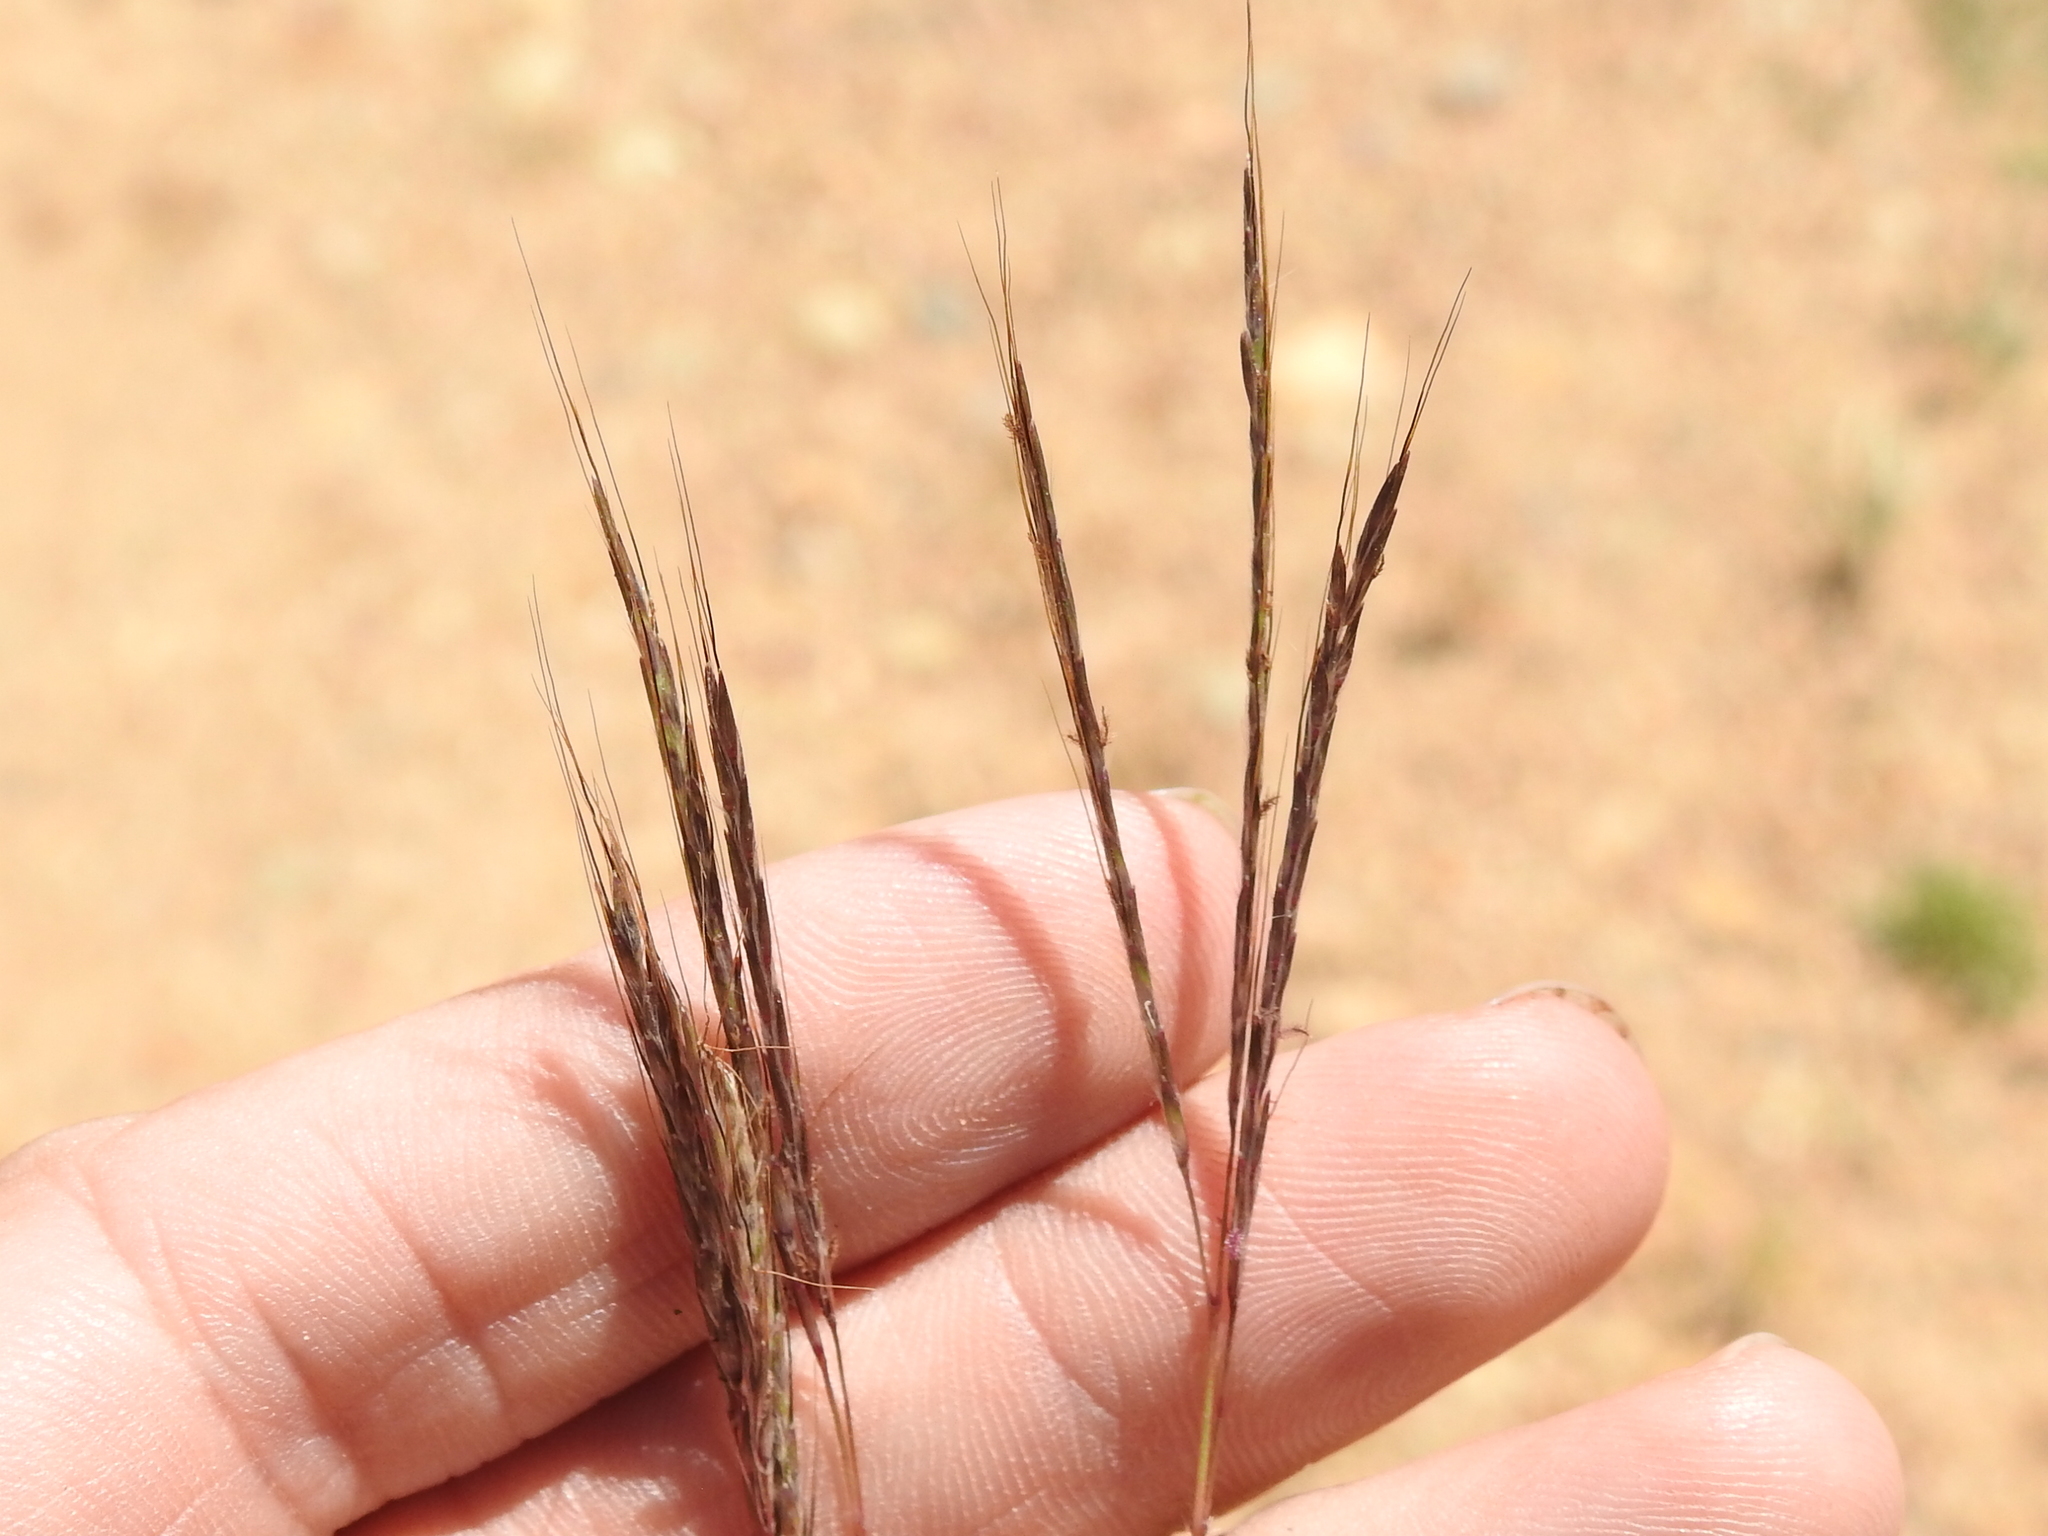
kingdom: Plantae
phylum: Tracheophyta
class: Liliopsida
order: Poales
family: Poaceae
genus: Bothriochloa
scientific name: Bothriochloa ischaemum
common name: Yellow bluestem
